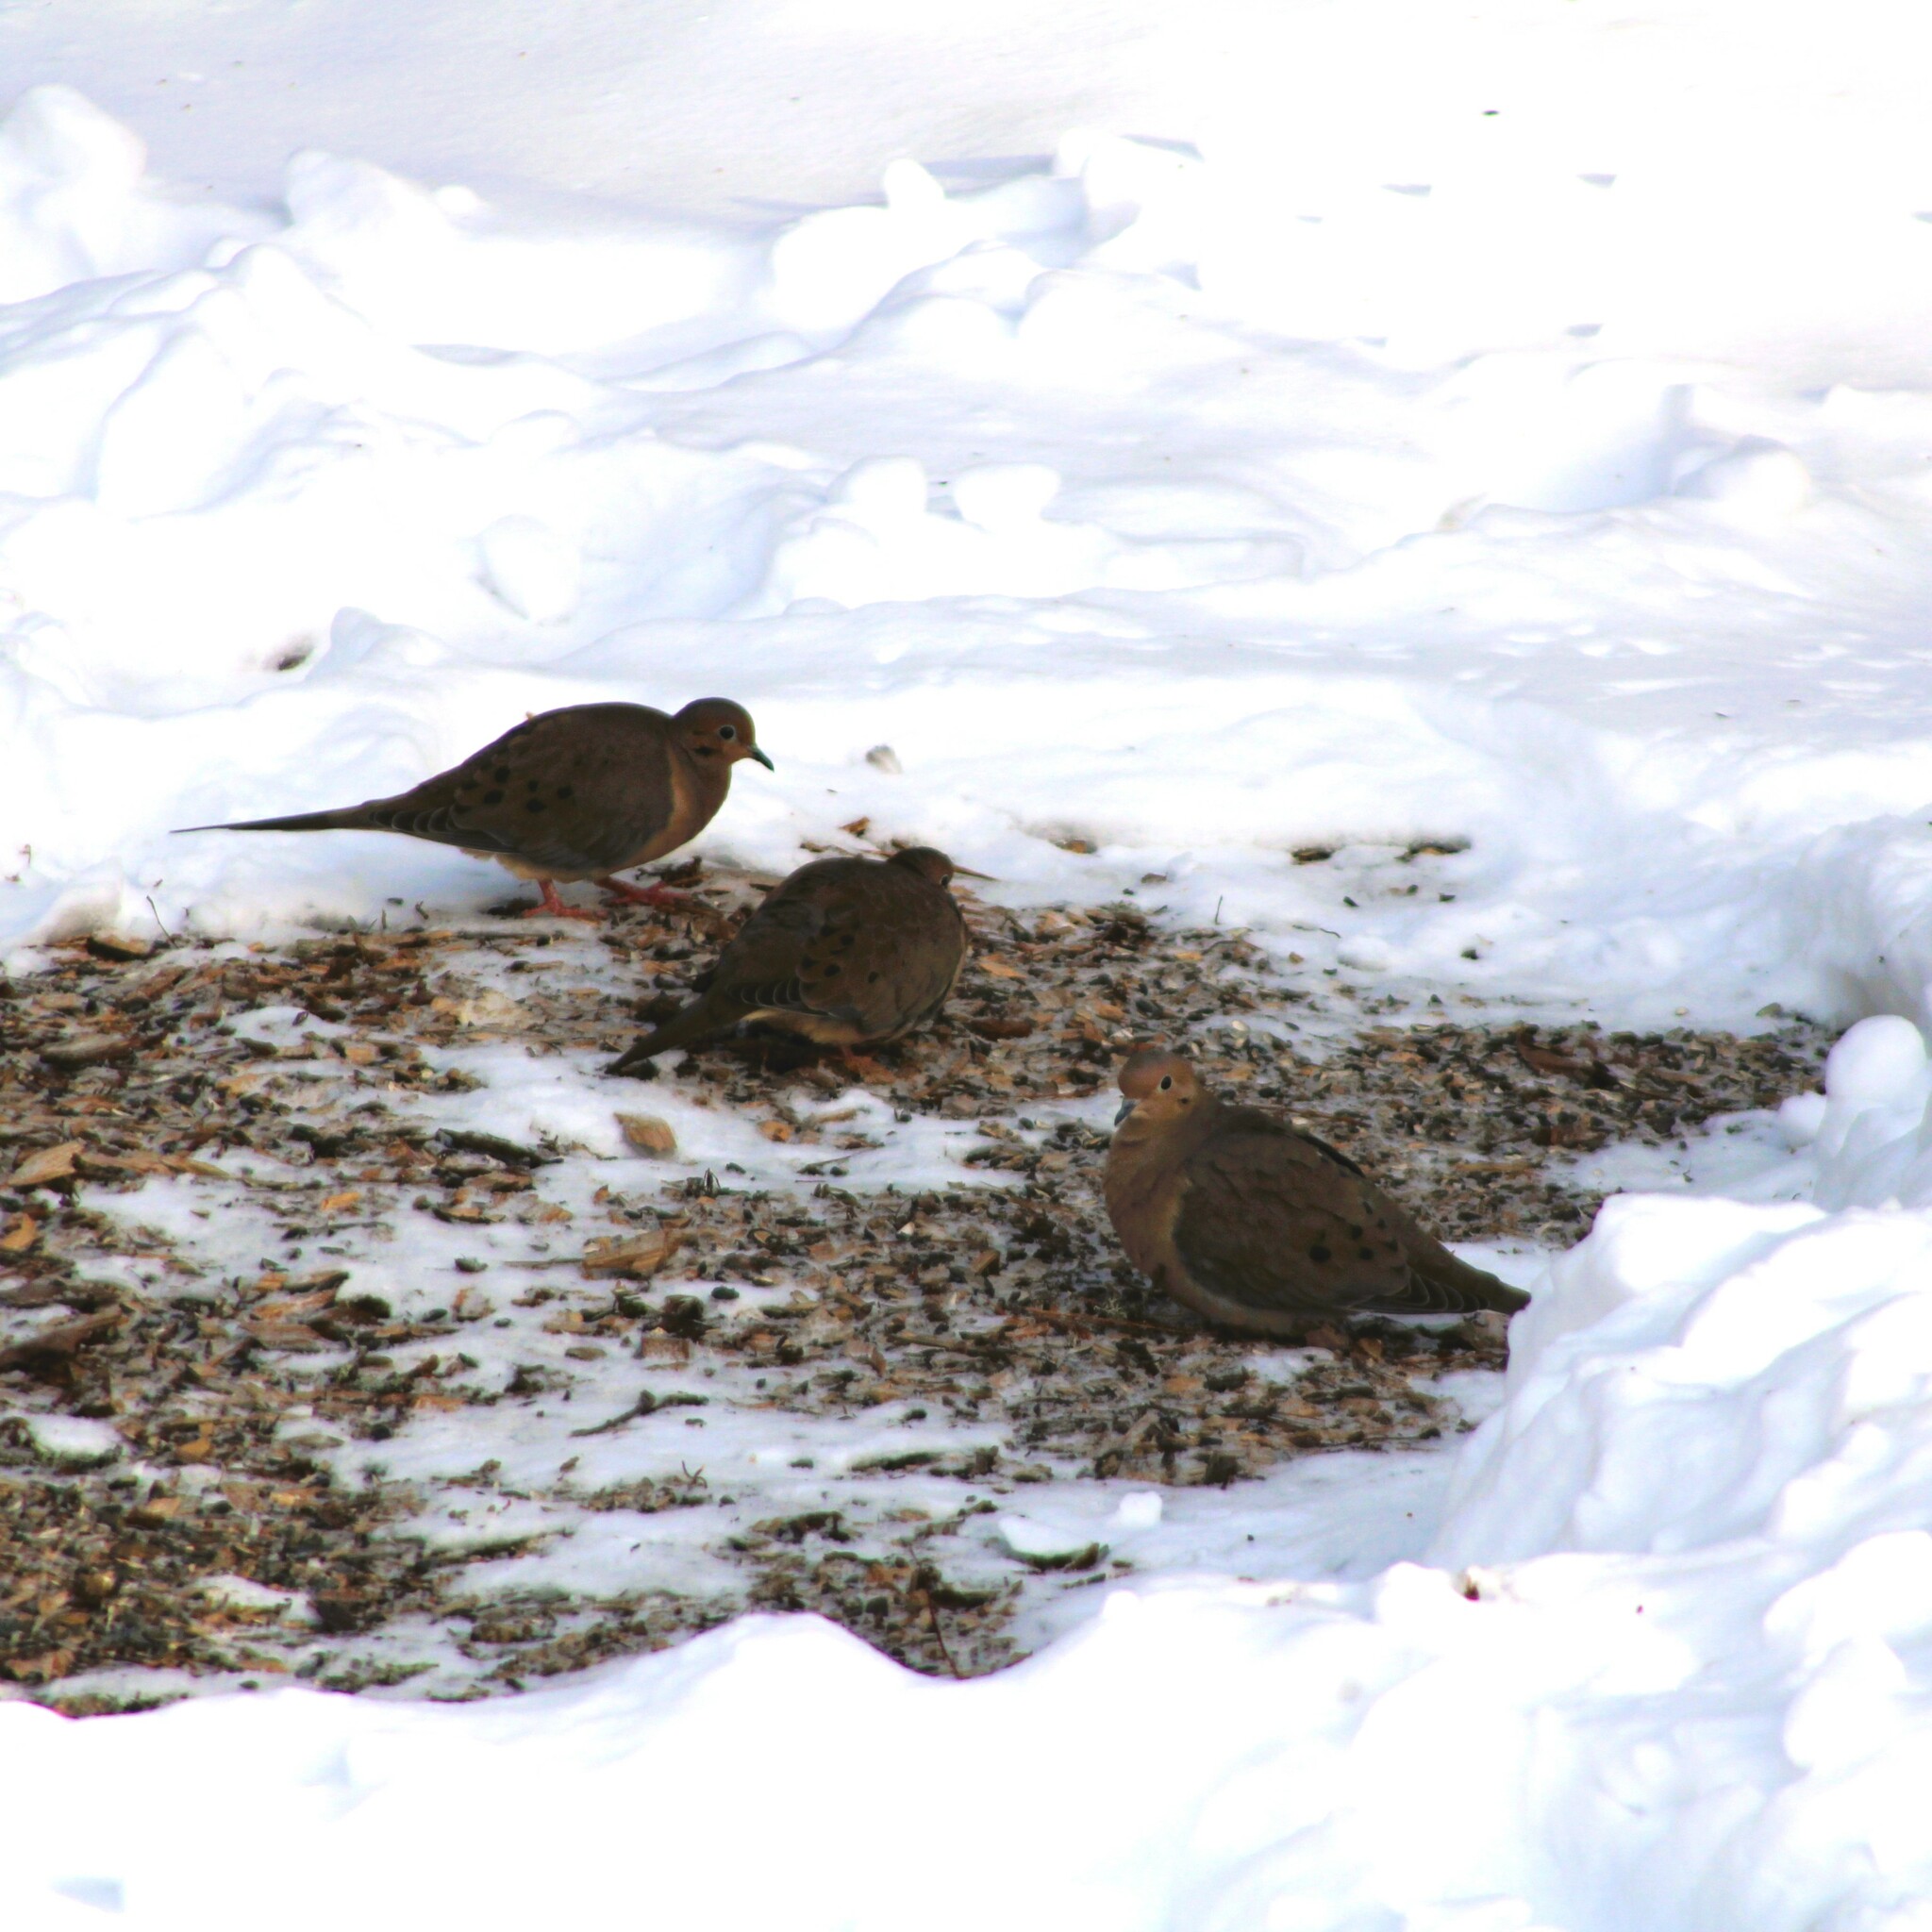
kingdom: Animalia
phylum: Chordata
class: Aves
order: Columbiformes
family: Columbidae
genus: Zenaida
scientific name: Zenaida macroura
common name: Mourning dove
